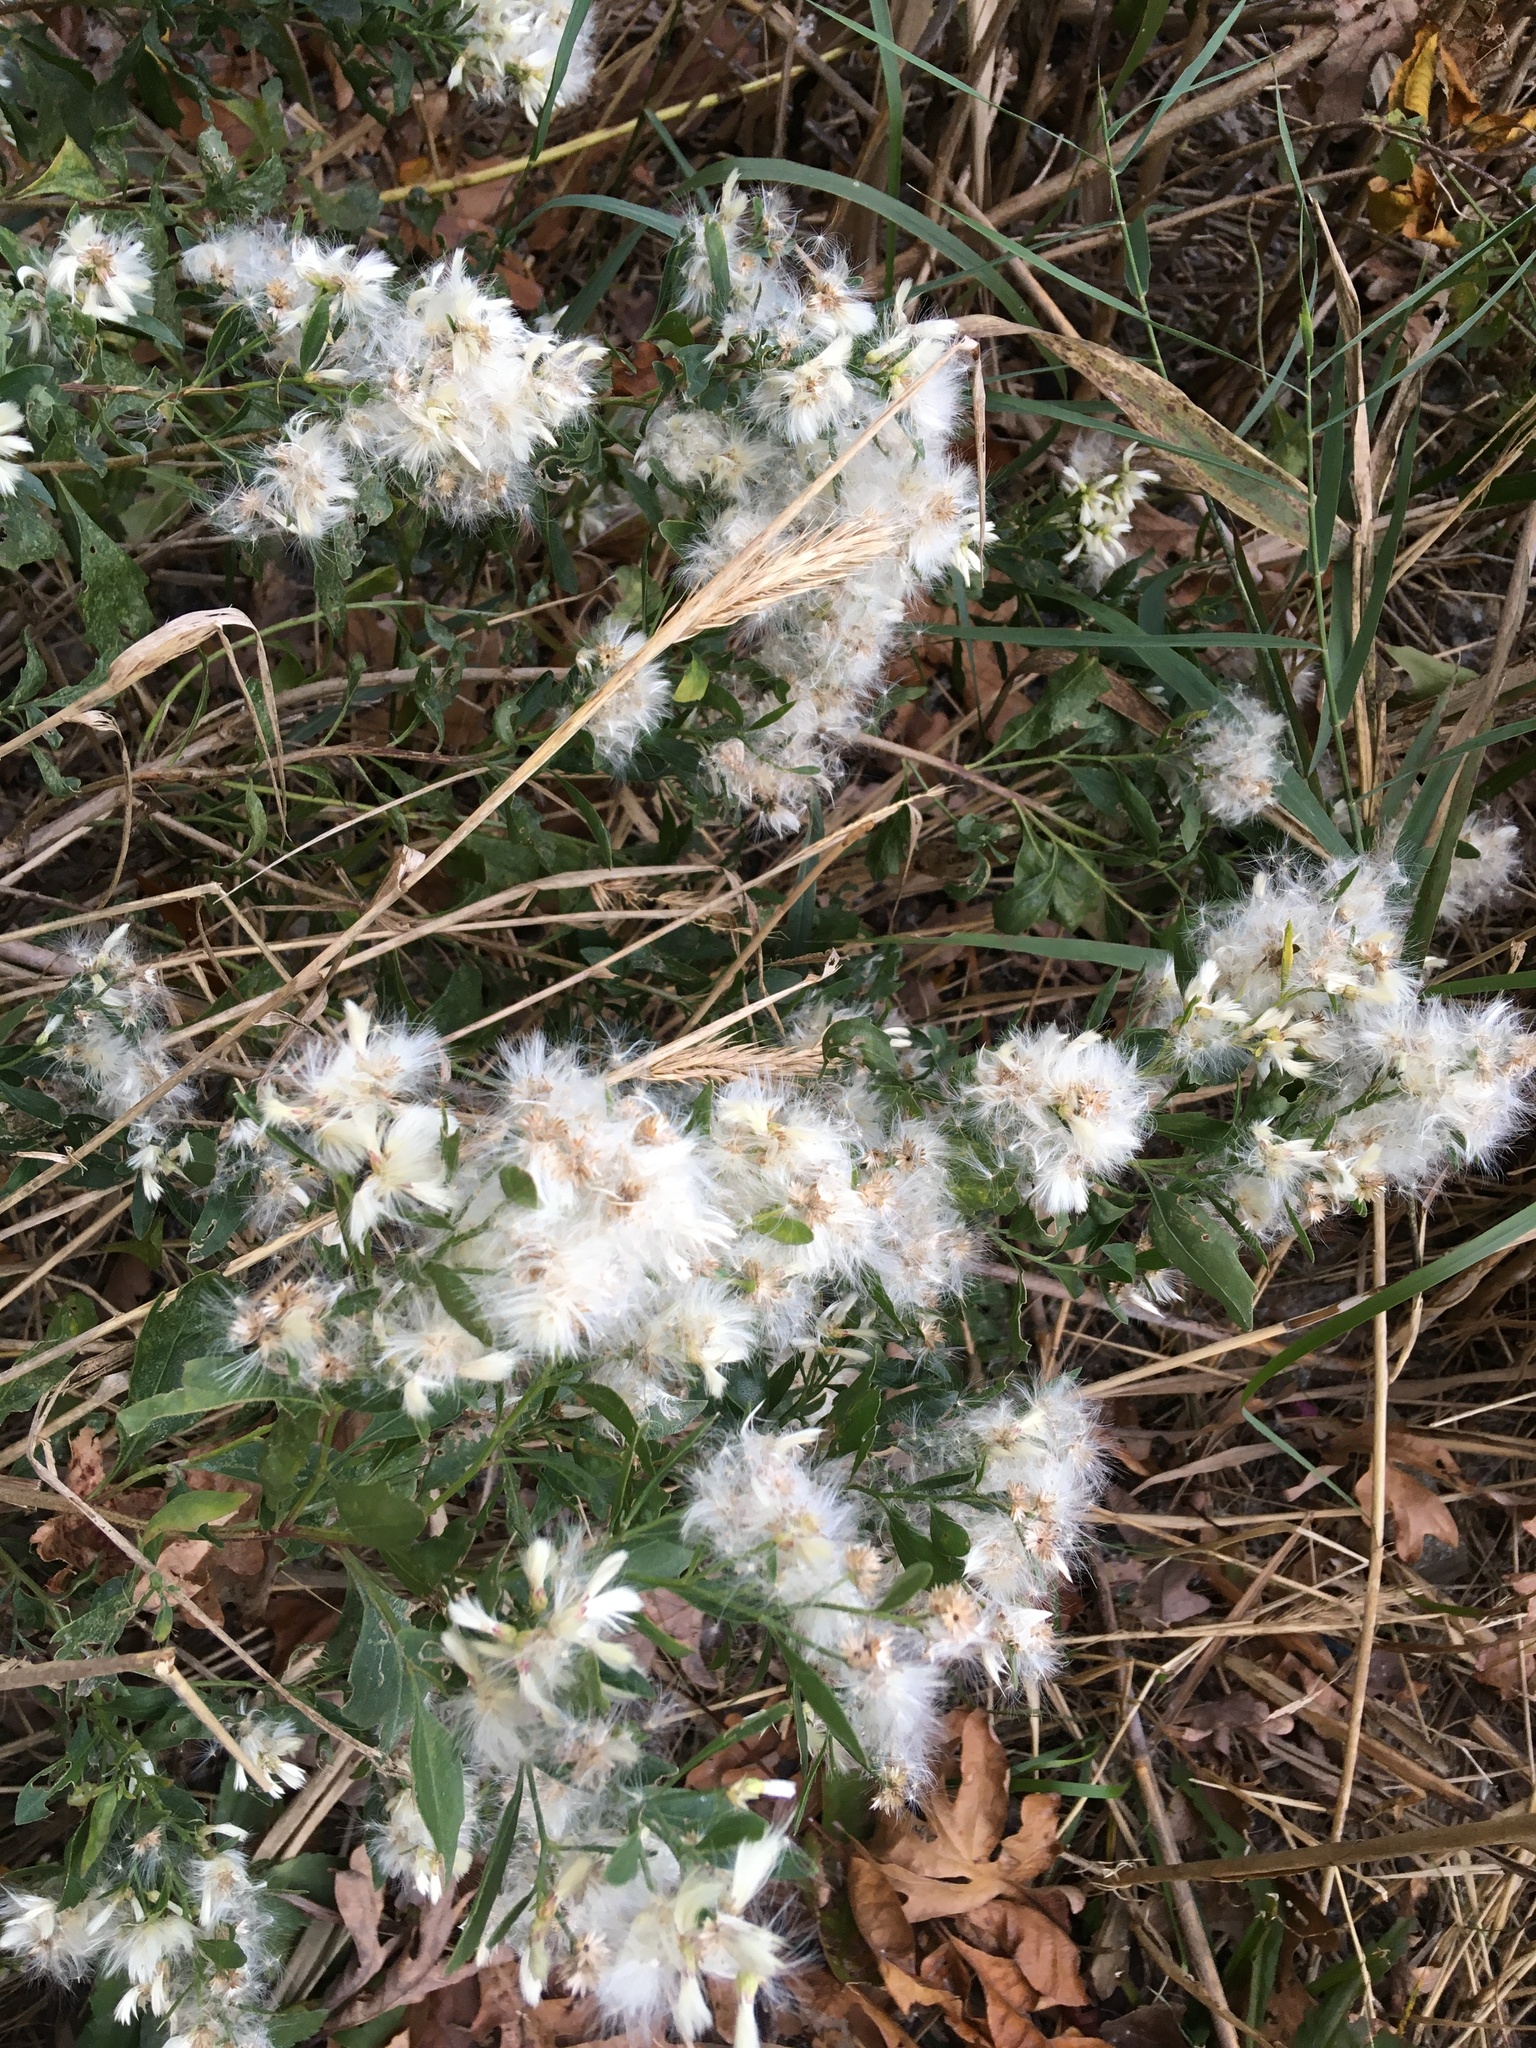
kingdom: Plantae
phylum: Tracheophyta
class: Magnoliopsida
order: Asterales
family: Asteraceae
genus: Baccharis
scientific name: Baccharis halimifolia
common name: Eastern baccharis
